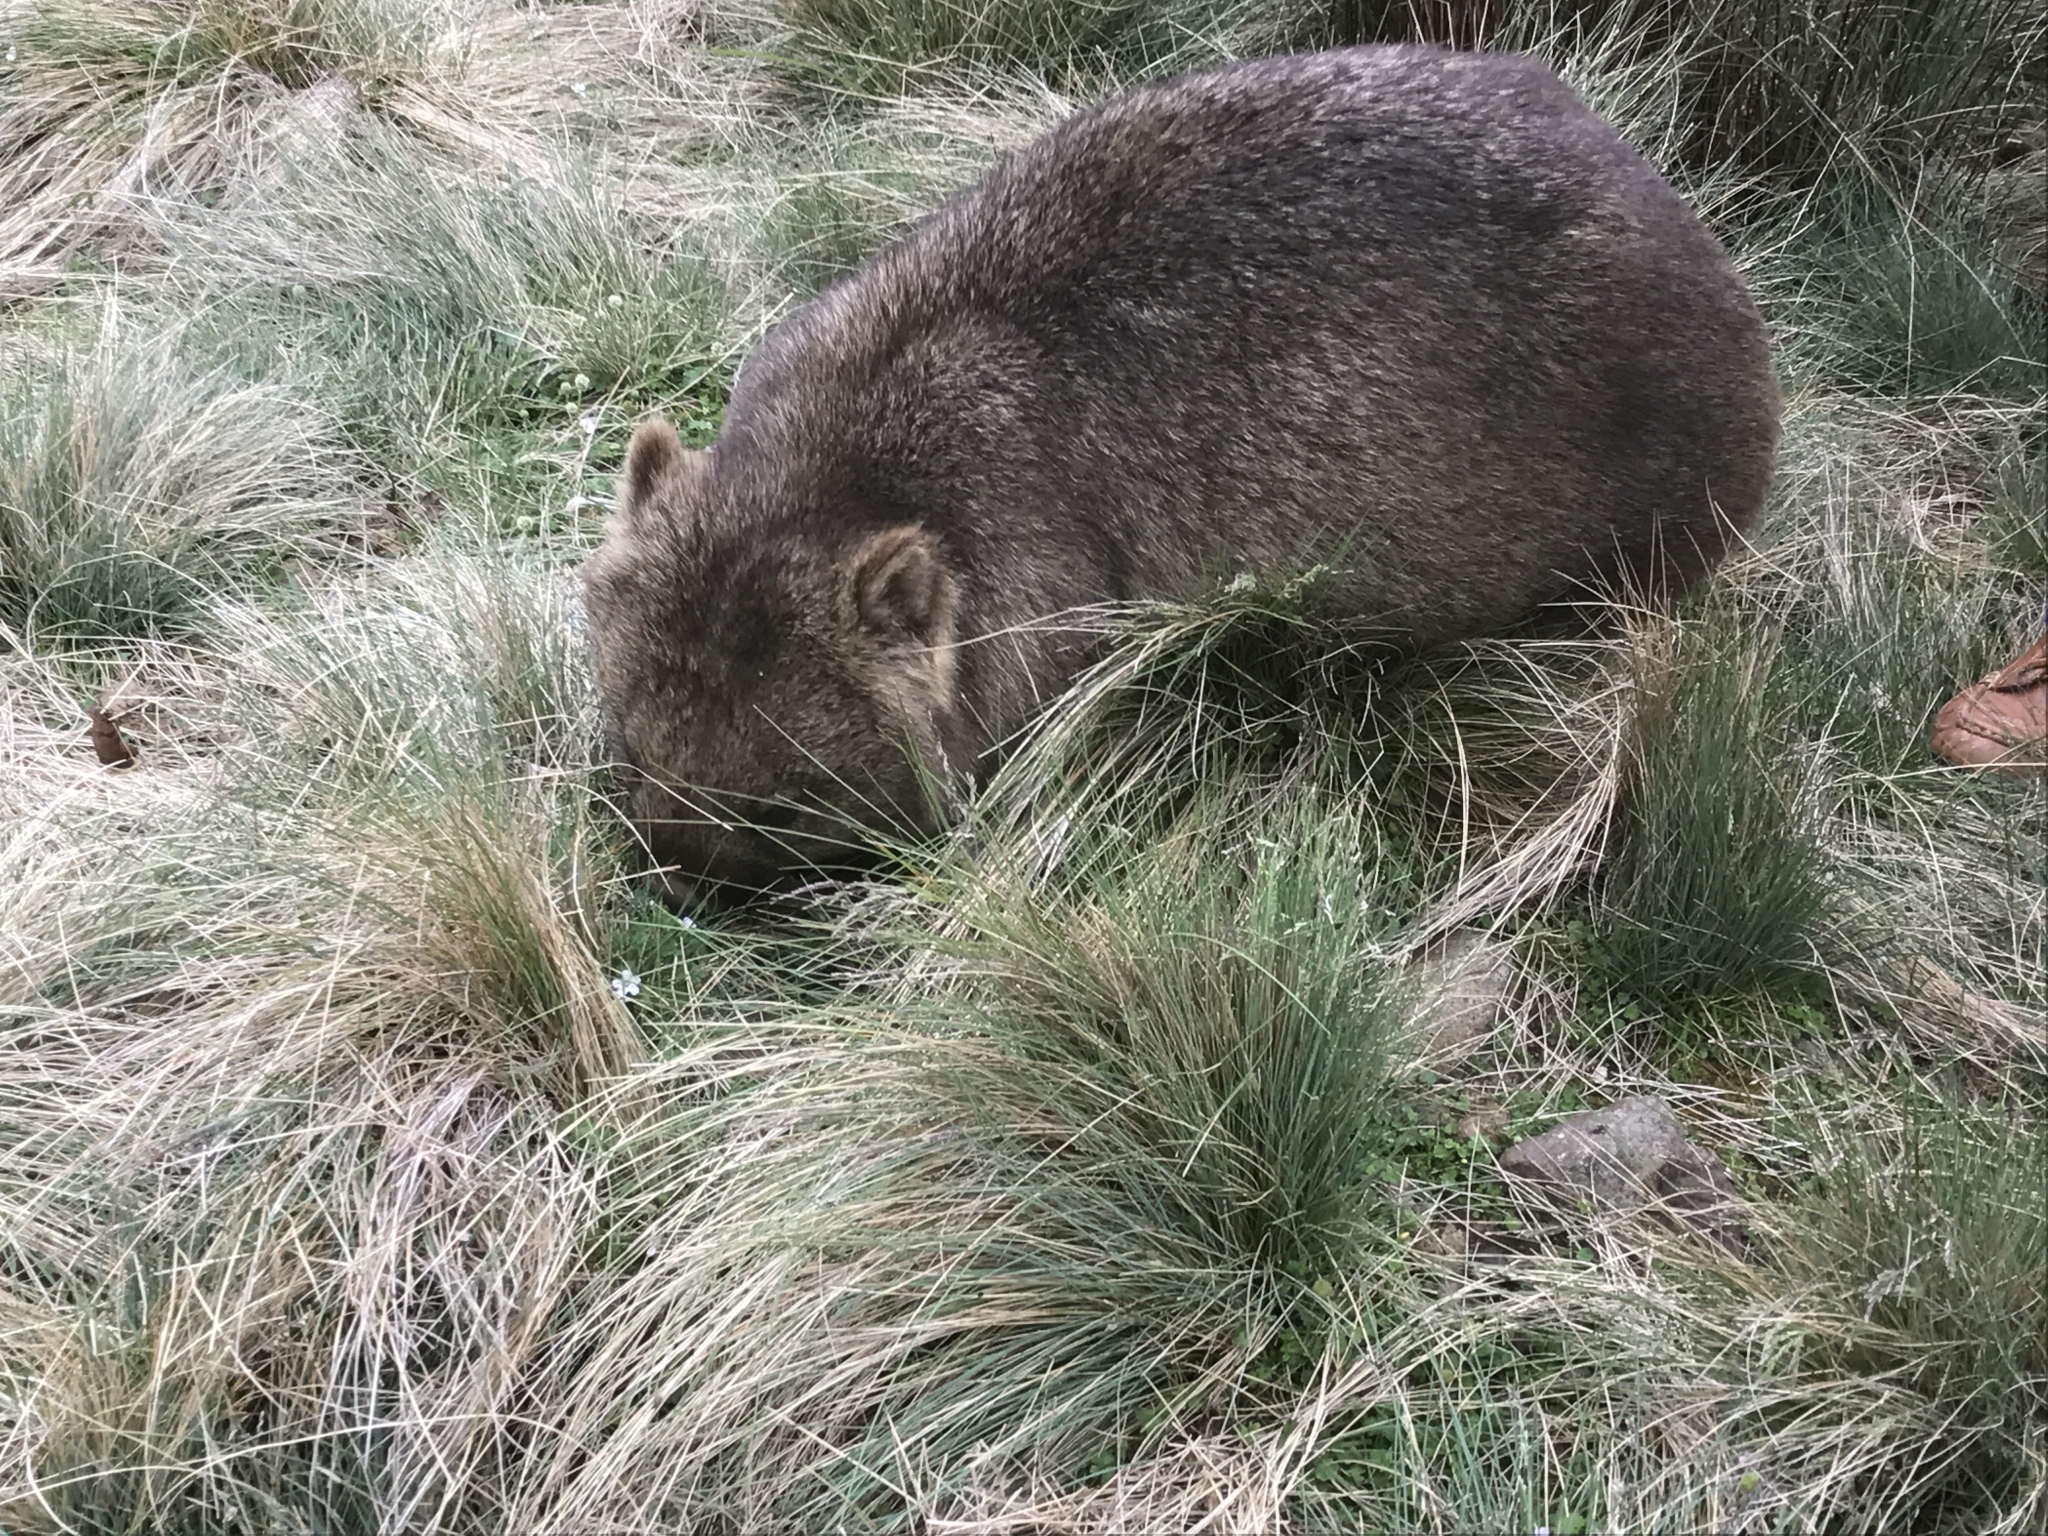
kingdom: Animalia
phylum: Chordata
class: Mammalia
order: Diprotodontia
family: Vombatidae
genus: Vombatus
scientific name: Vombatus ursinus
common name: Common wombat
